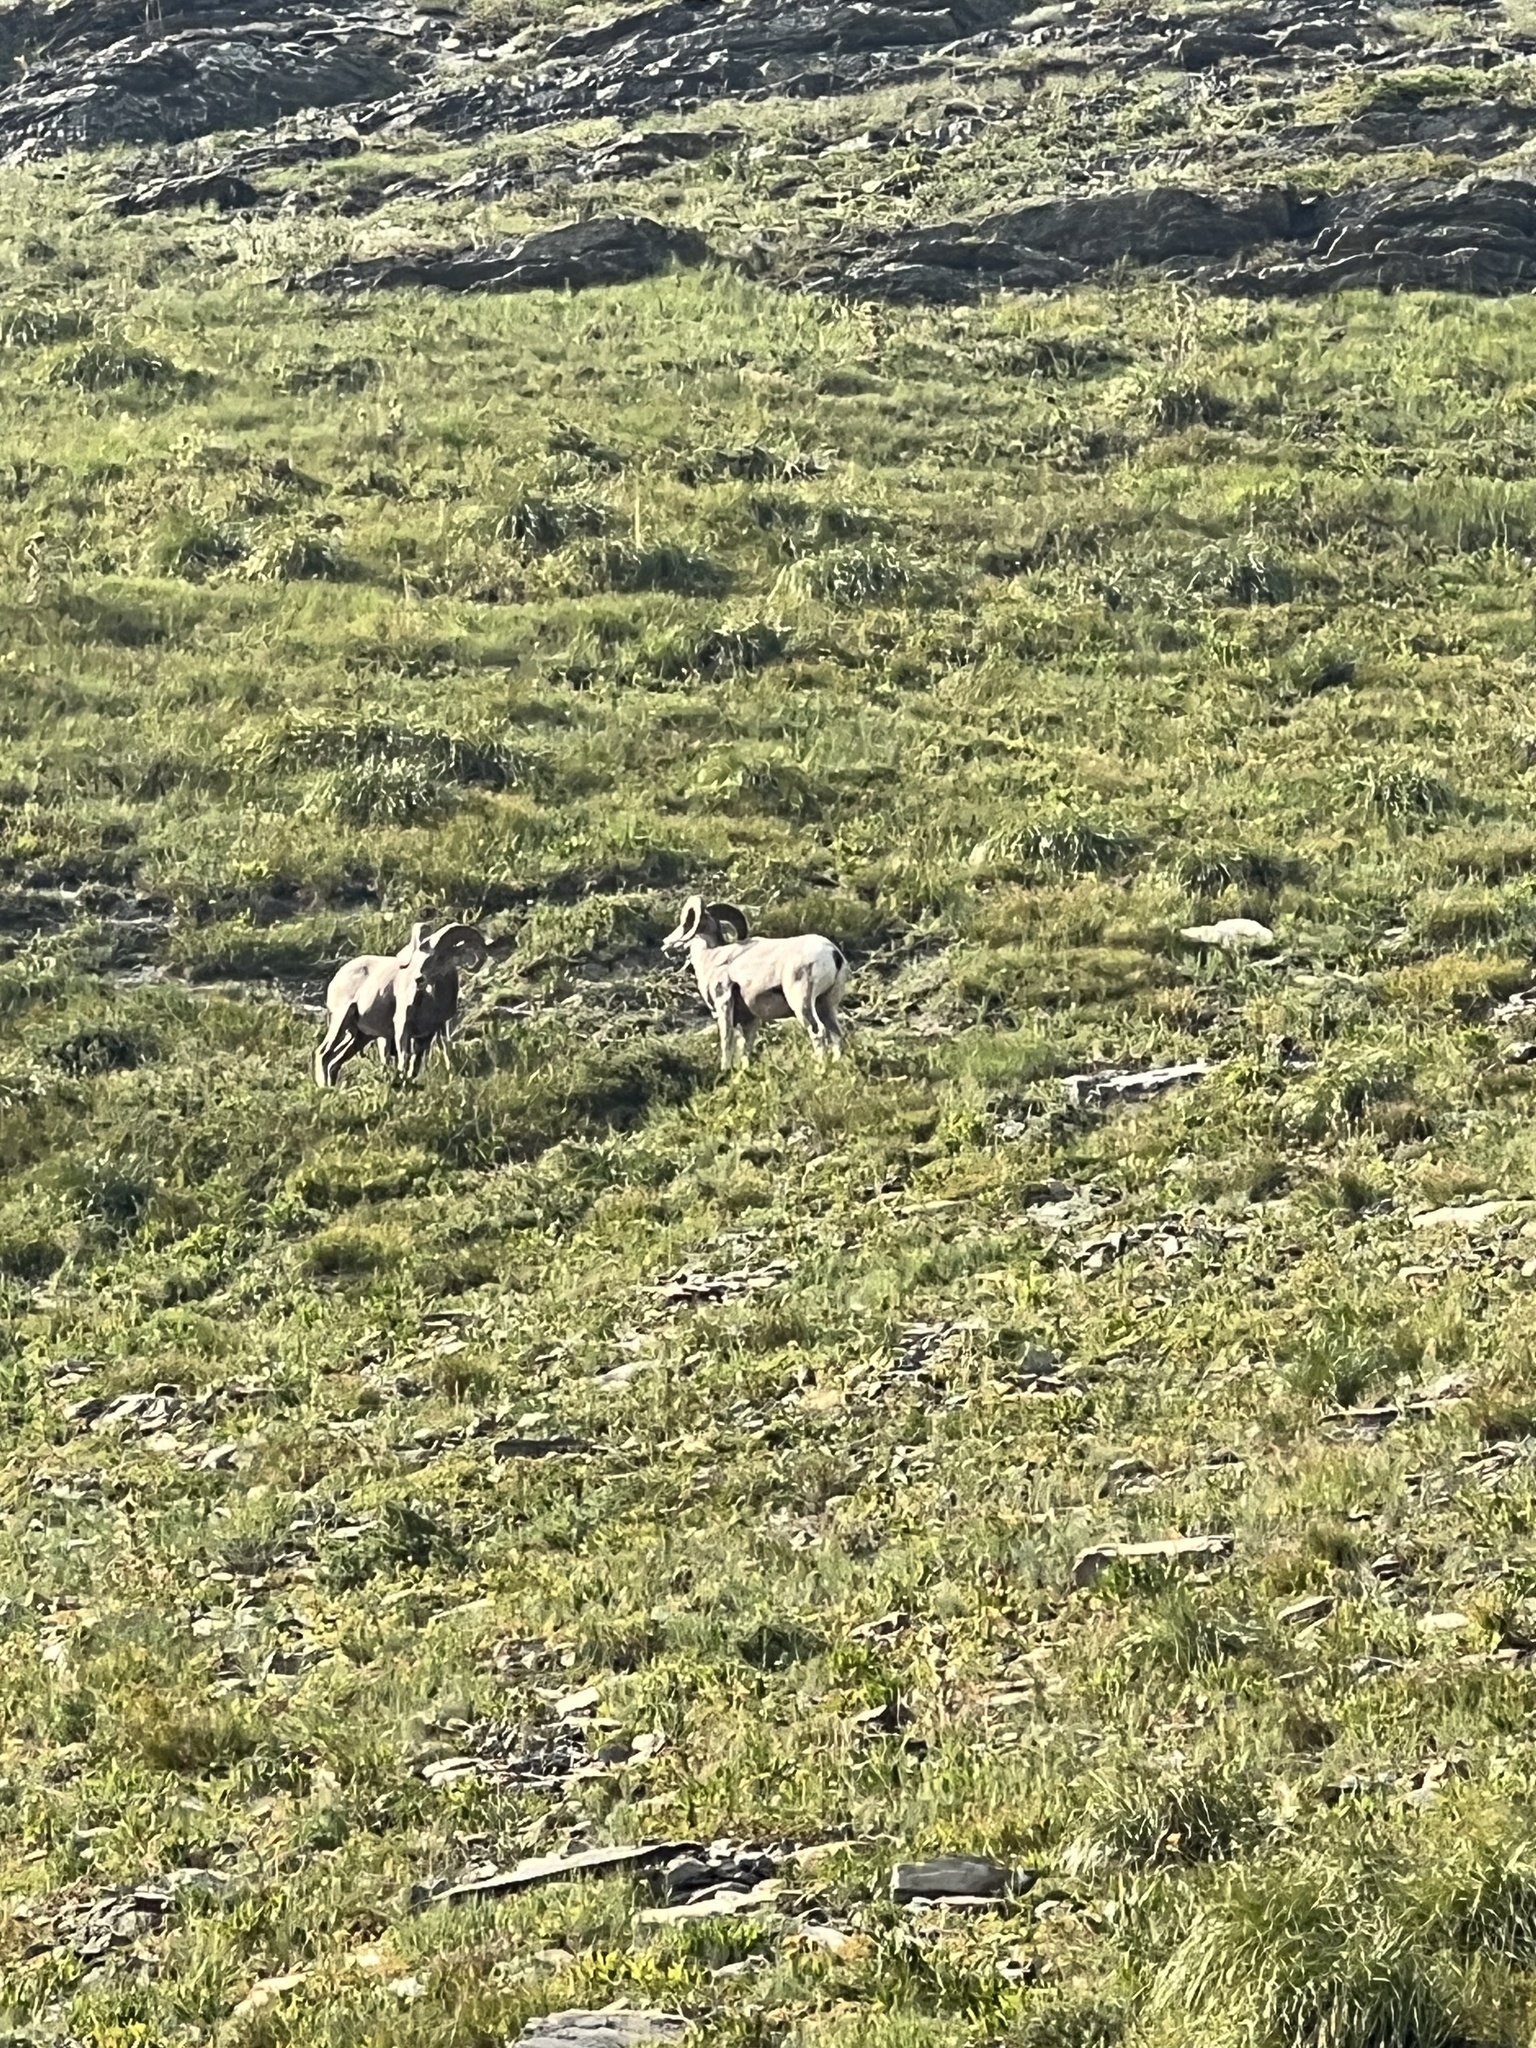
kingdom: Animalia
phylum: Chordata
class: Mammalia
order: Artiodactyla
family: Bovidae
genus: Ovis
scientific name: Ovis canadensis
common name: Bighorn sheep
